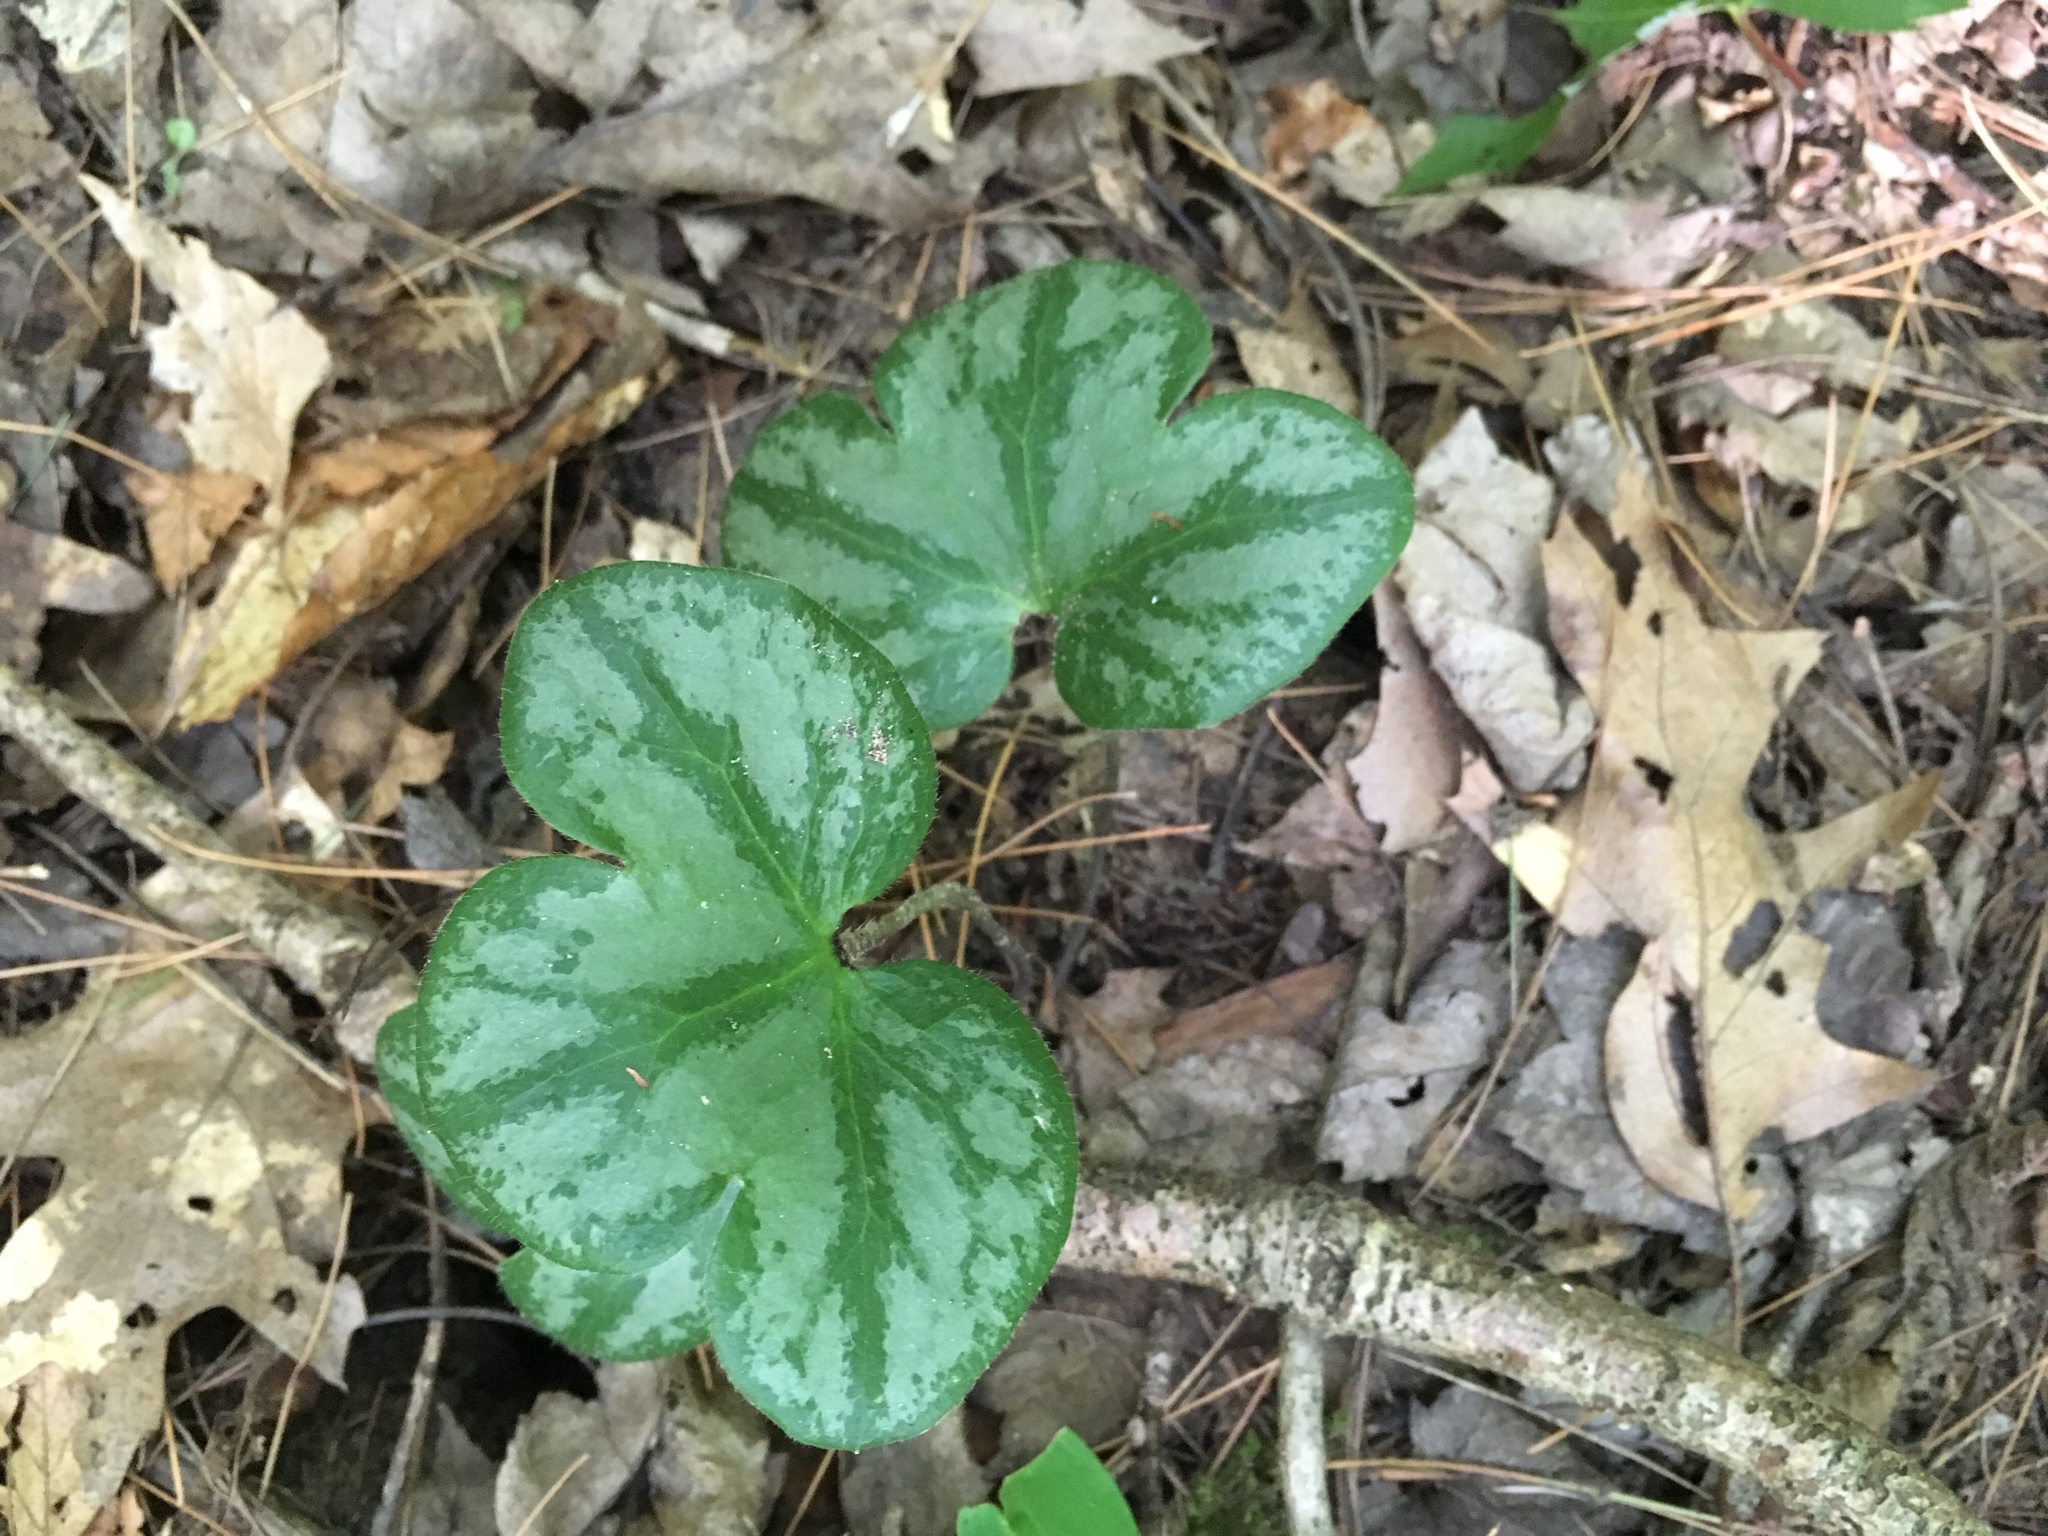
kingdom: Plantae
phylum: Tracheophyta
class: Magnoliopsida
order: Ranunculales
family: Ranunculaceae
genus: Hepatica
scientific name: Hepatica americana
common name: American hepatica
